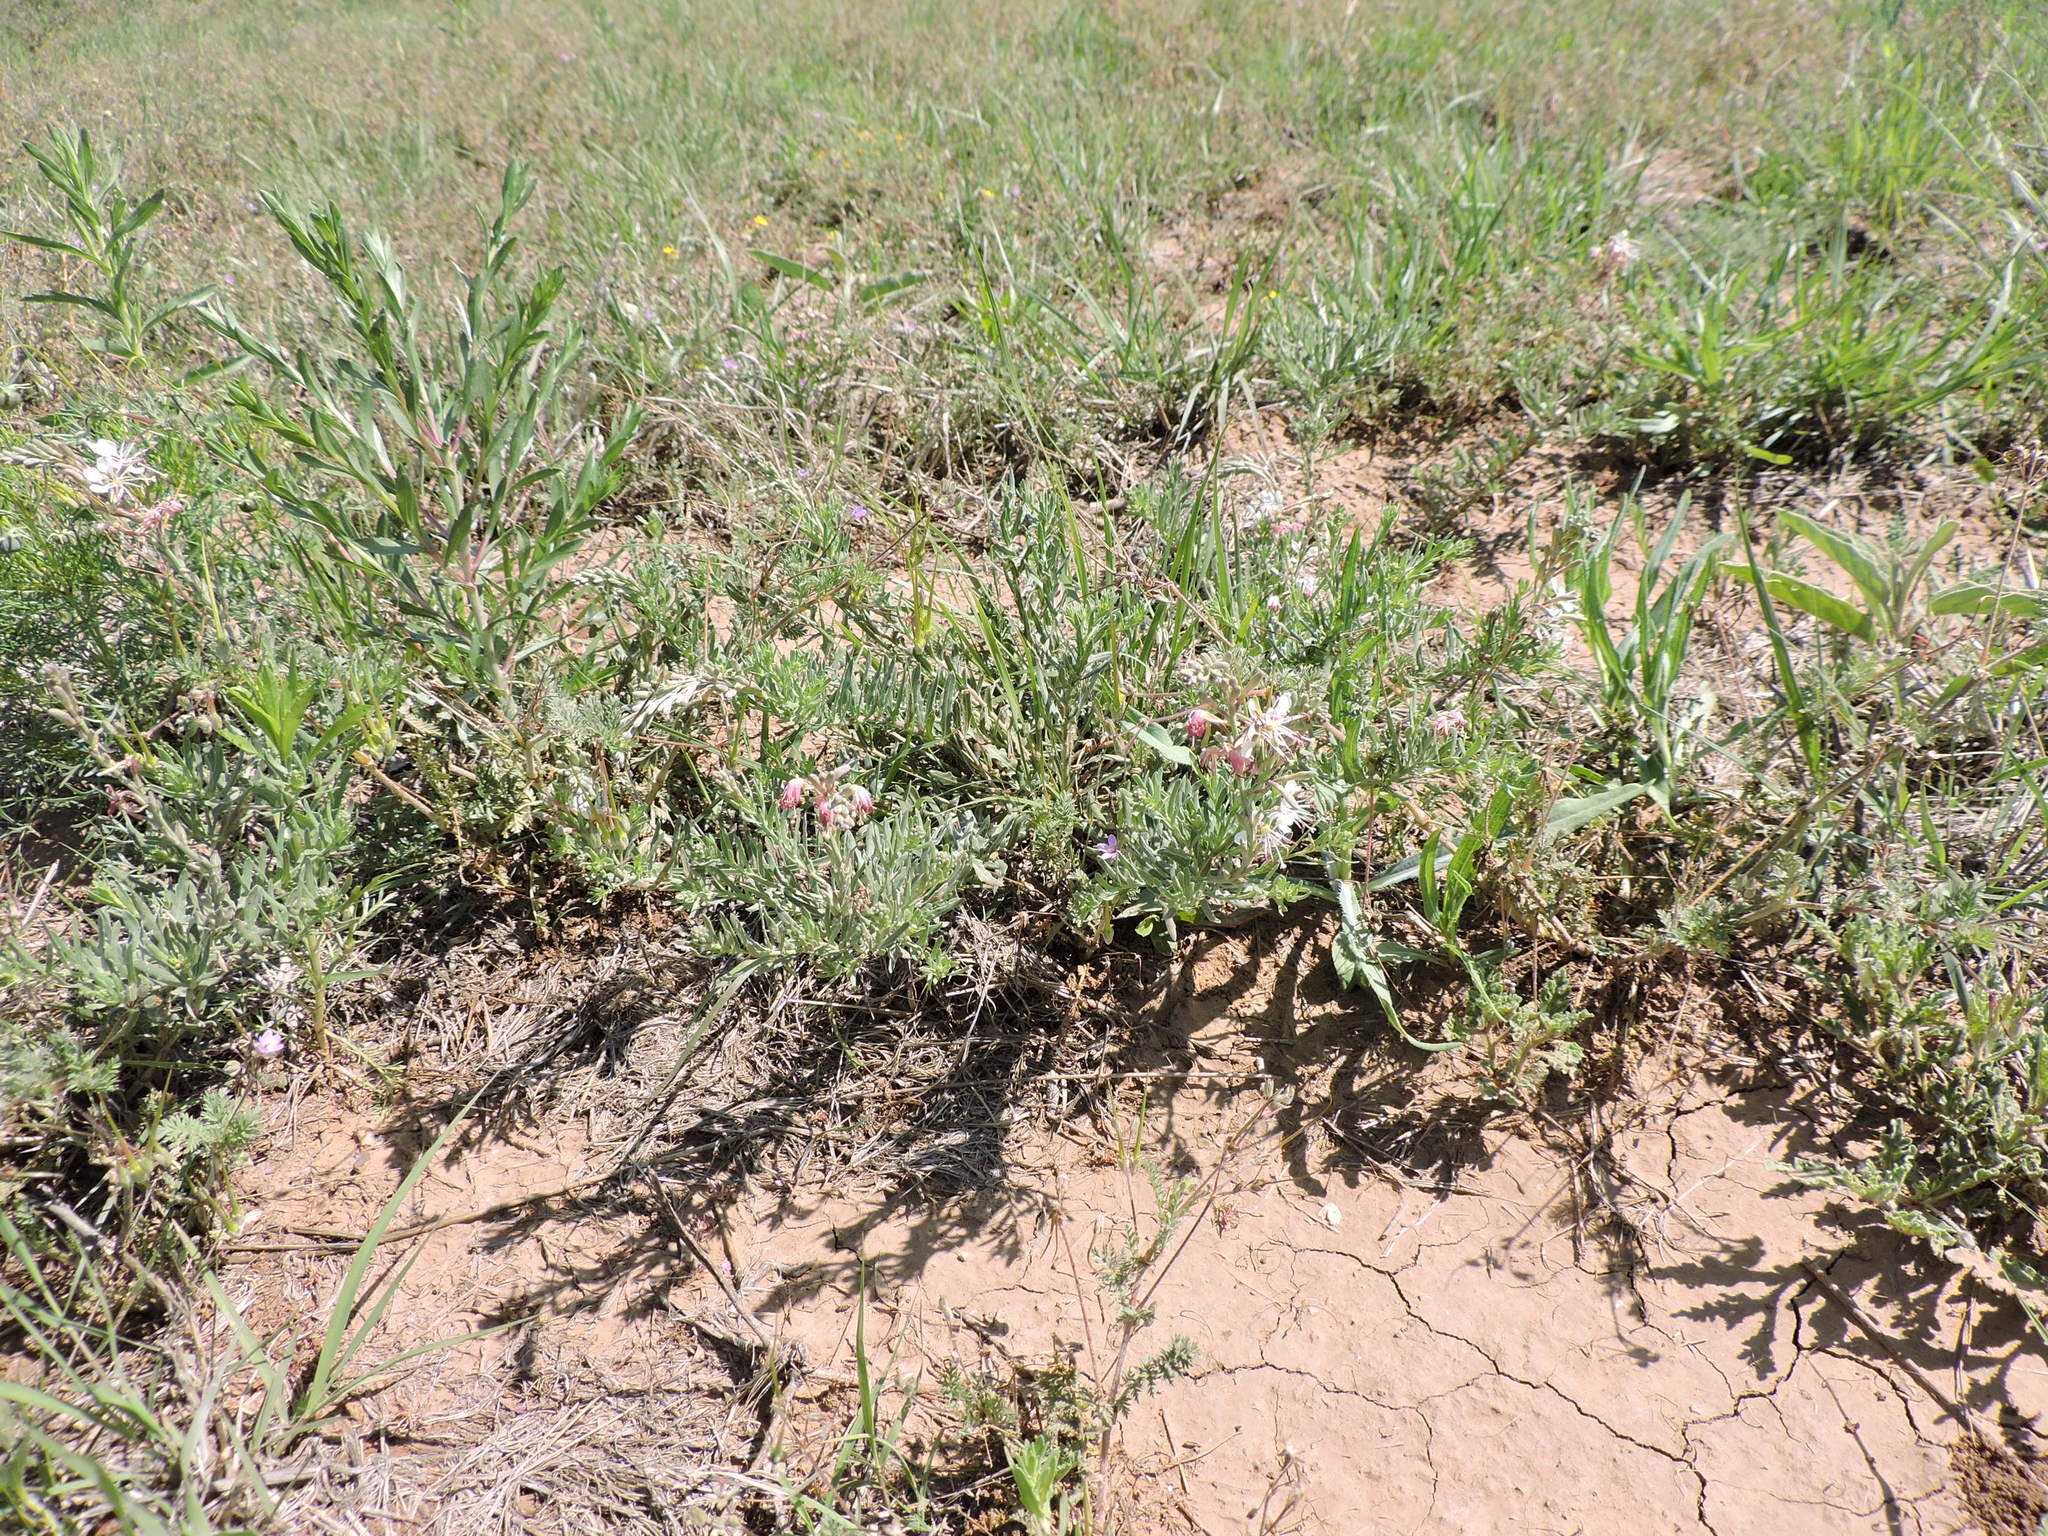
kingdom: Plantae
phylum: Tracheophyta
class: Magnoliopsida
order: Myrtales
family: Onagraceae
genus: Oenothera
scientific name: Oenothera suffrutescens
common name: Scarlet beeblossom
